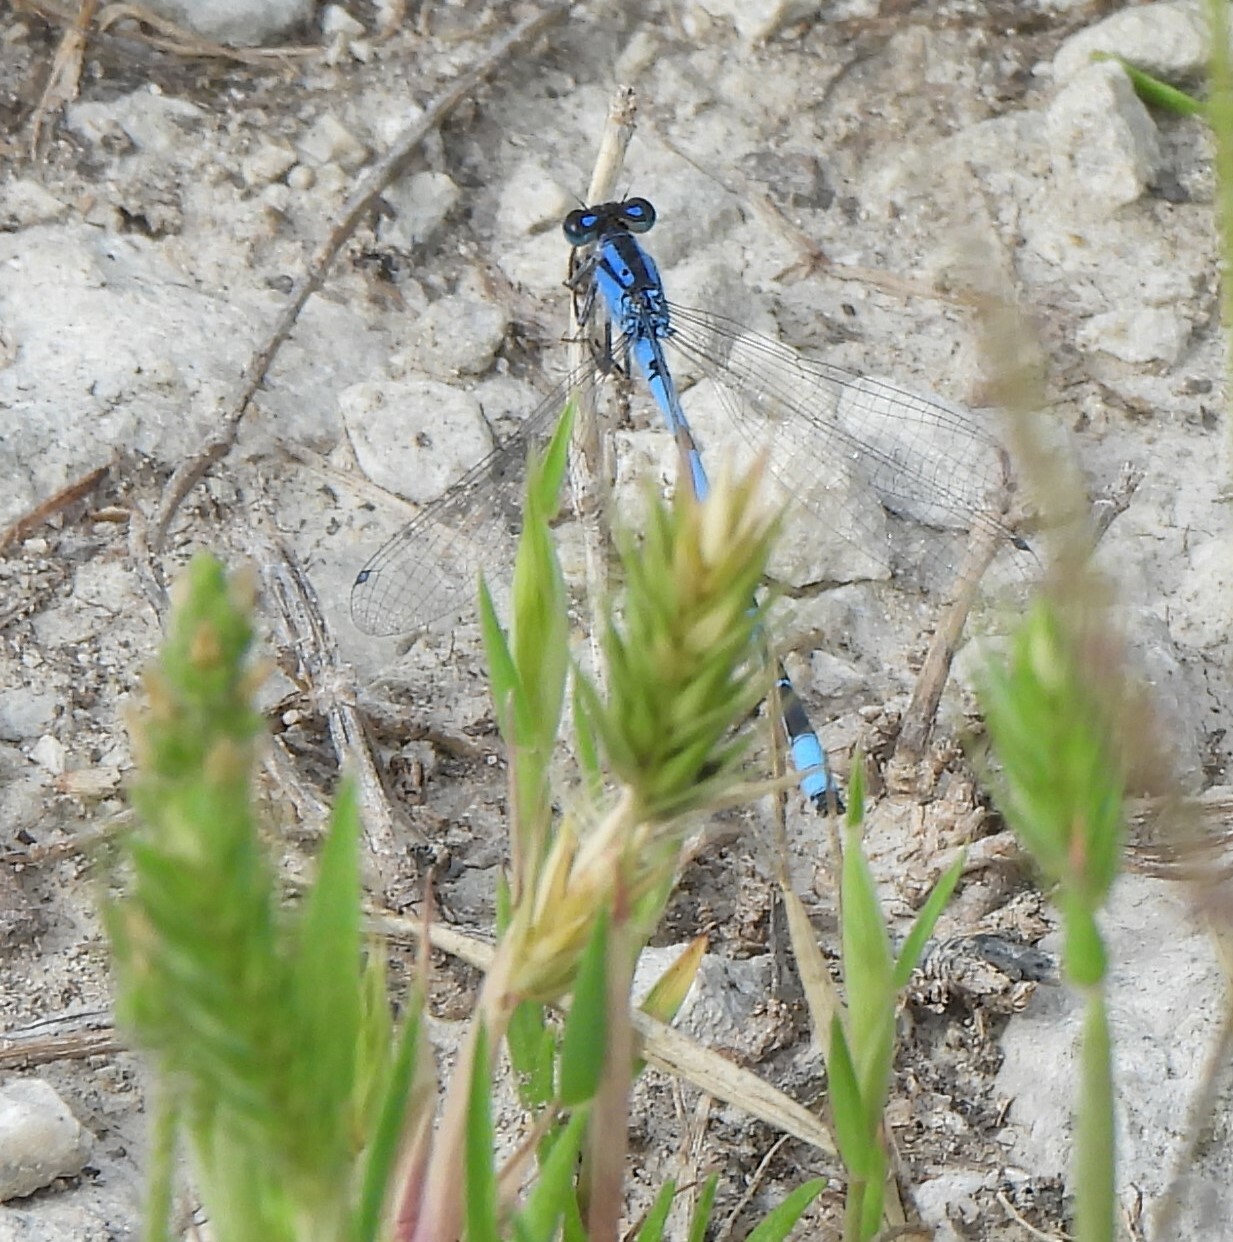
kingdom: Animalia
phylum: Arthropoda
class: Insecta
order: Odonata
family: Coenagrionidae
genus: Enallagma
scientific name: Enallagma civile
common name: Damselfly
